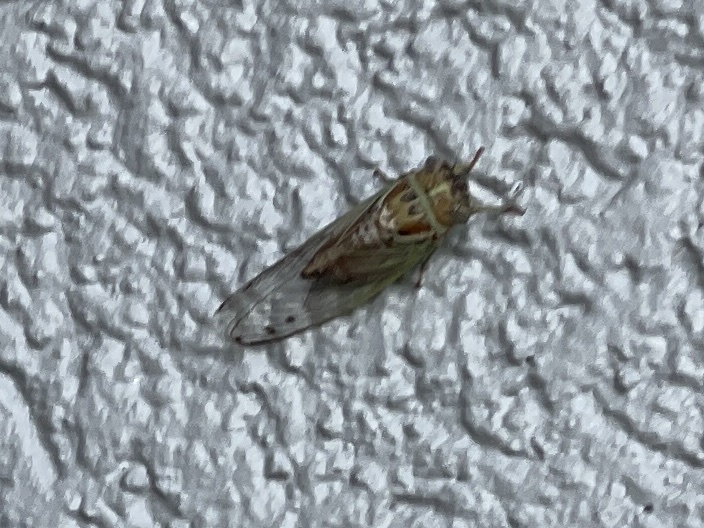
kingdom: Animalia
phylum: Arthropoda
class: Insecta
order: Hemiptera
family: Cicadidae
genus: Diceroprocta
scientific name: Diceroprocta delicata
